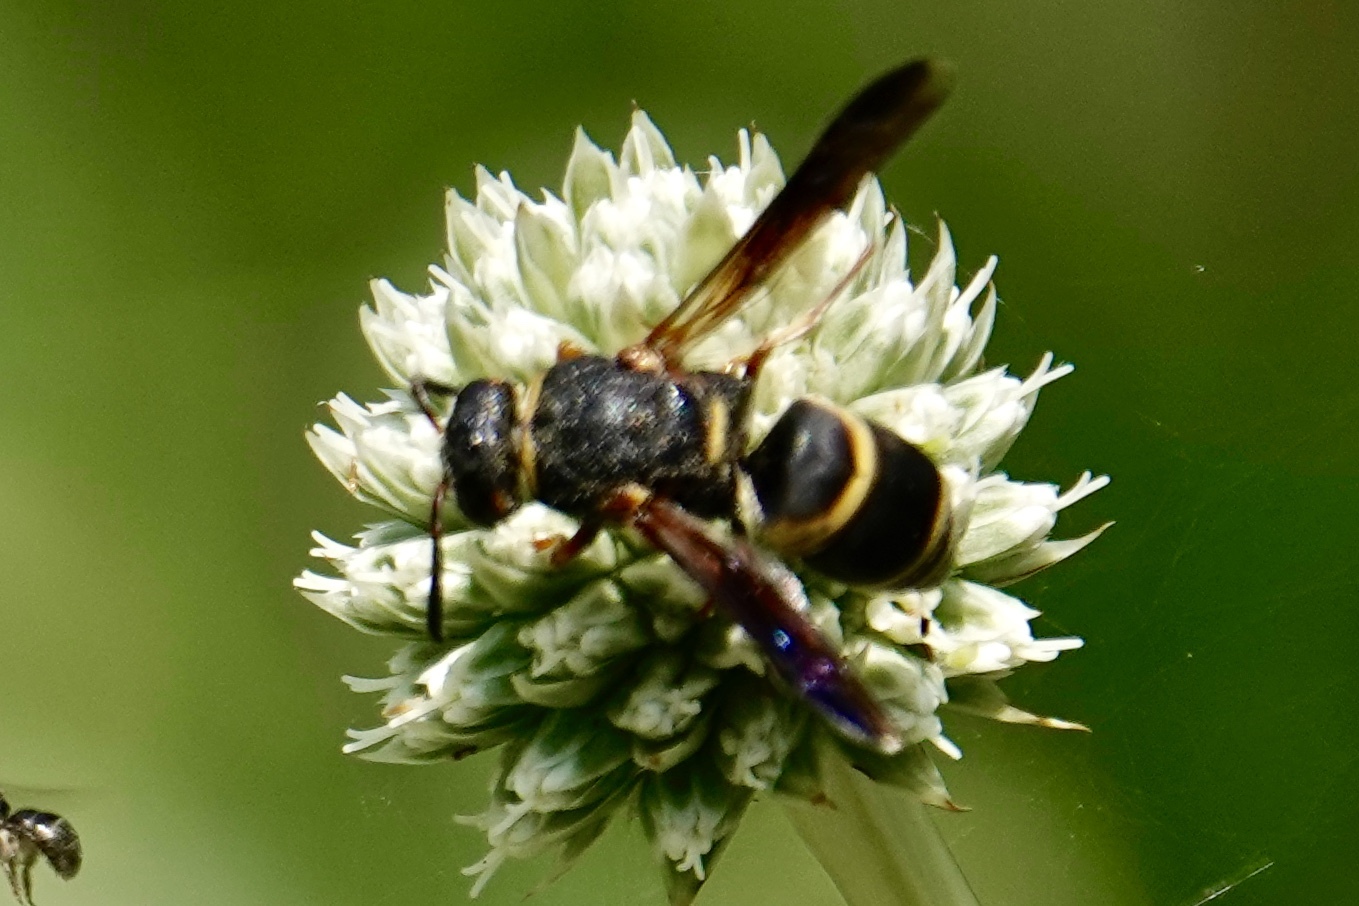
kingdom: Animalia
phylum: Arthropoda
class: Insecta
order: Hymenoptera
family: Eumenidae
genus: Euodynerus
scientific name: Euodynerus hidalgo
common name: Wasp
